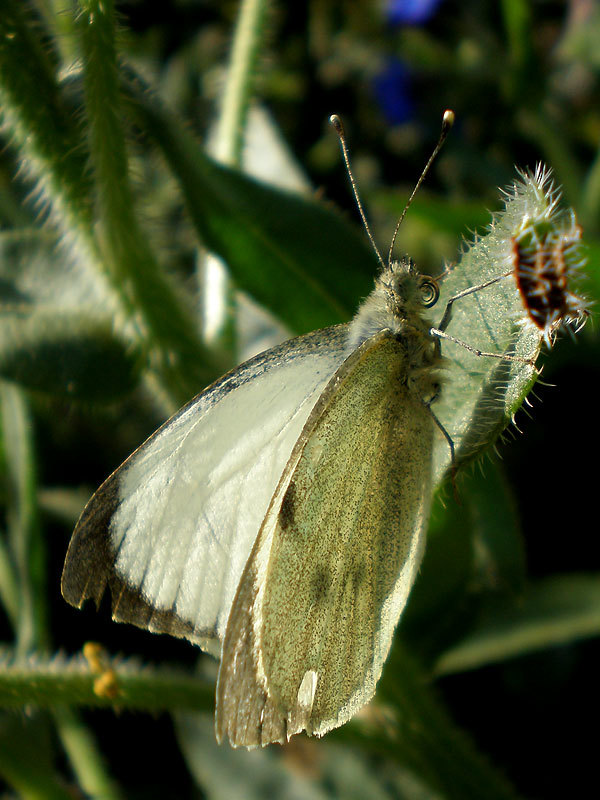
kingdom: Animalia
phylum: Arthropoda
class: Insecta
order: Lepidoptera
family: Pieridae
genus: Pieris
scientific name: Pieris brassicae
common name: Large white
